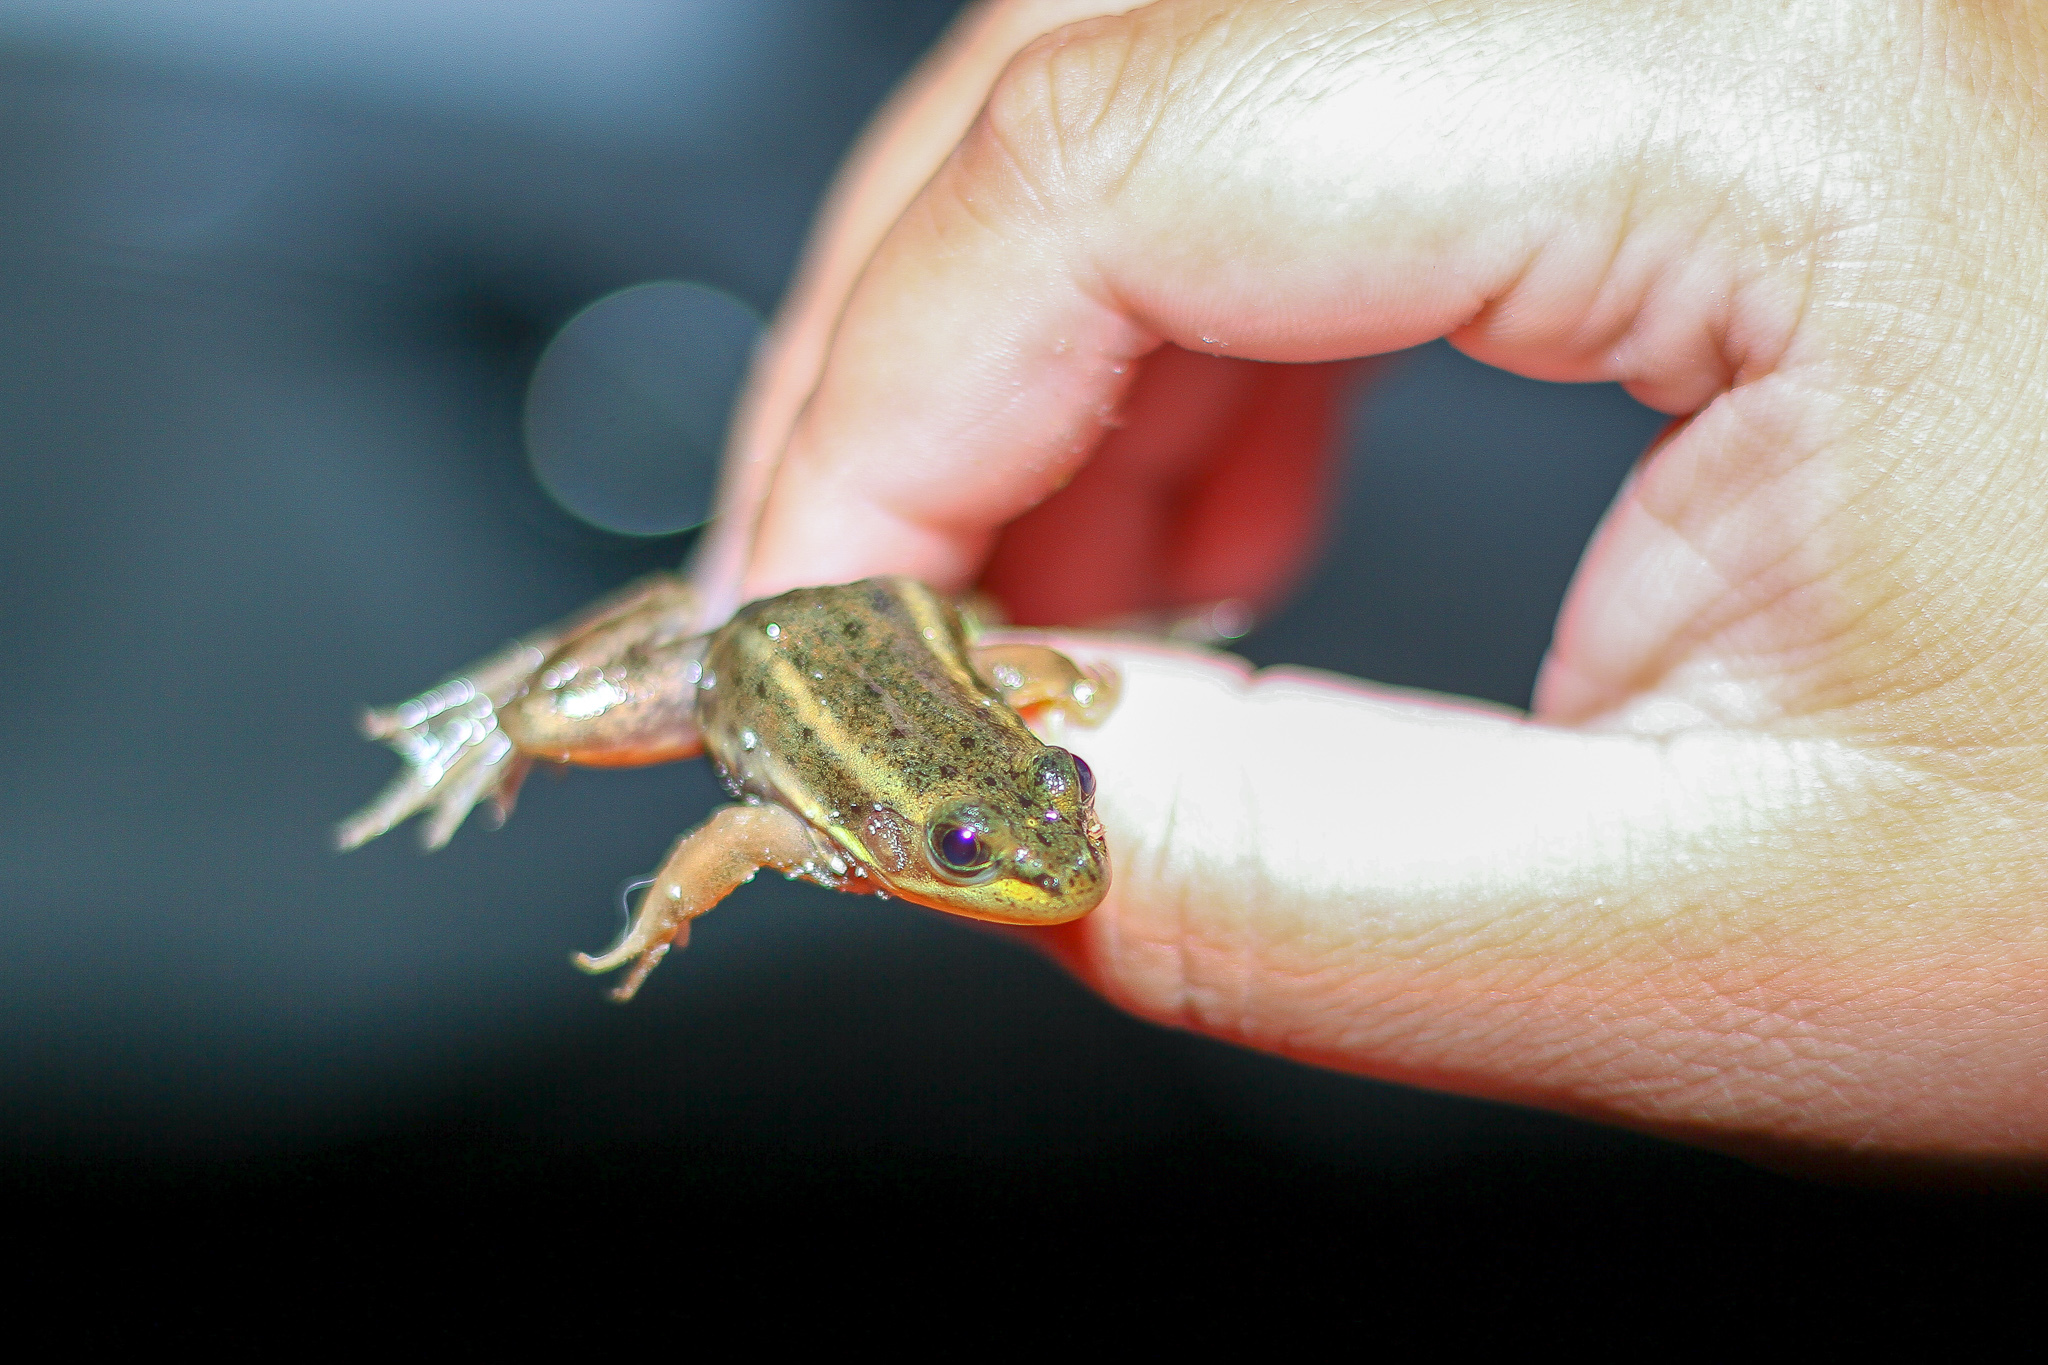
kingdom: Animalia
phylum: Chordata
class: Amphibia
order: Anura
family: Ranidae
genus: Lithobates
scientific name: Lithobates virgatipes
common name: Carpenter frog
